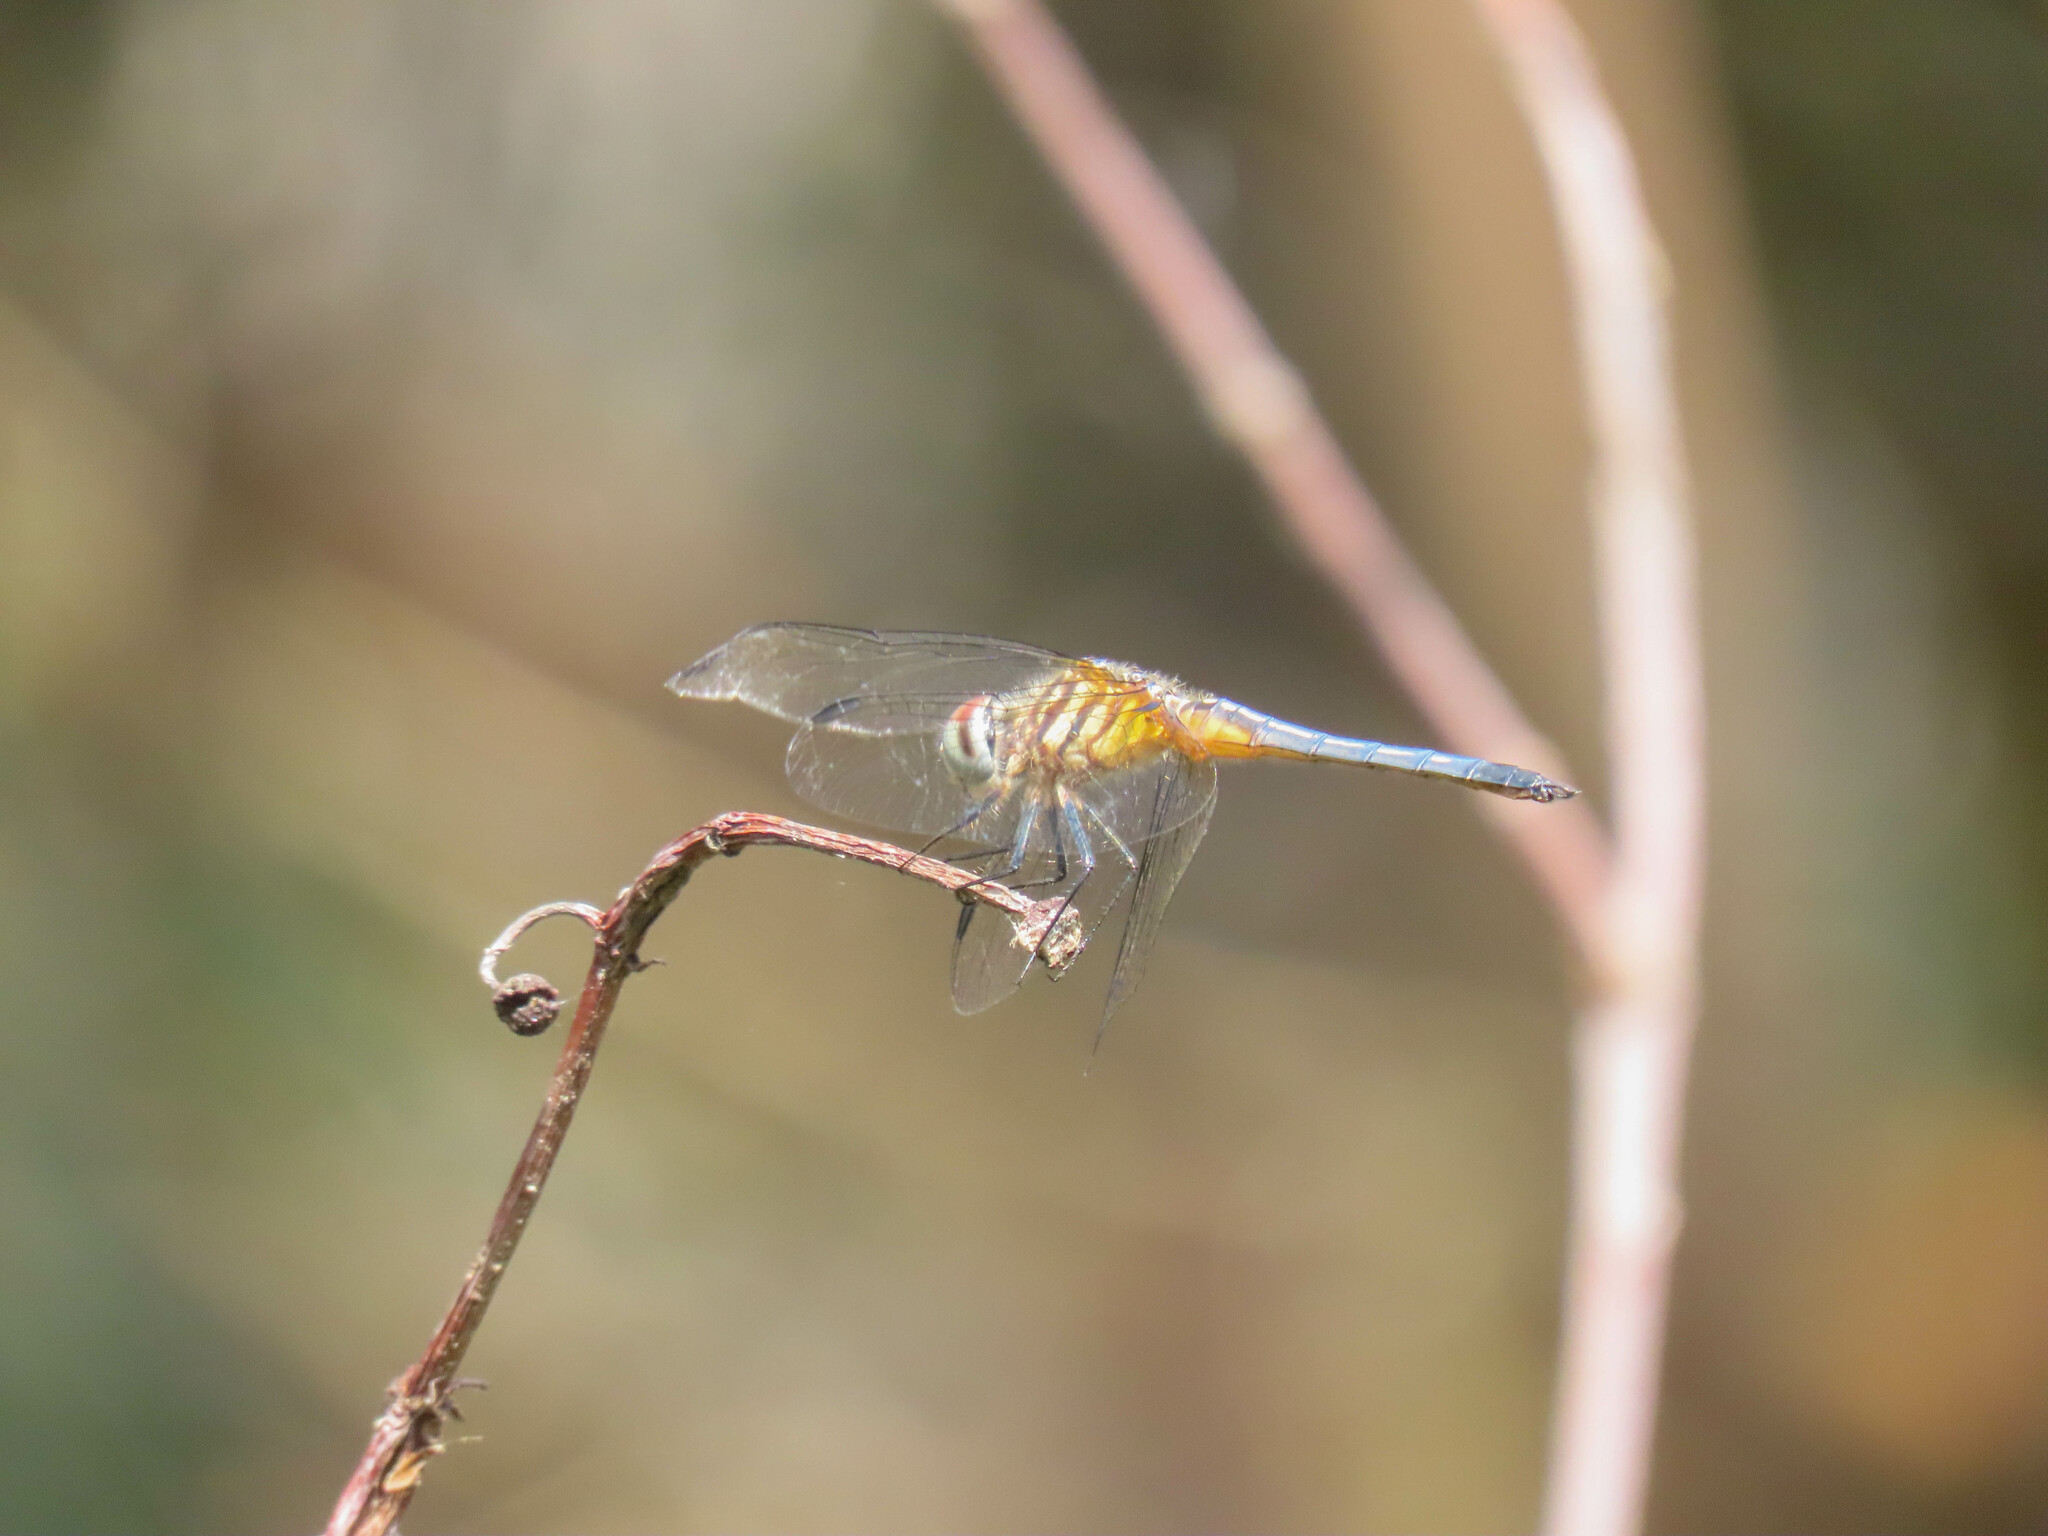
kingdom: Animalia
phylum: Arthropoda
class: Insecta
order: Odonata
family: Libellulidae
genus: Pachydiplax
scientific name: Pachydiplax longipennis
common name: Blue dasher
